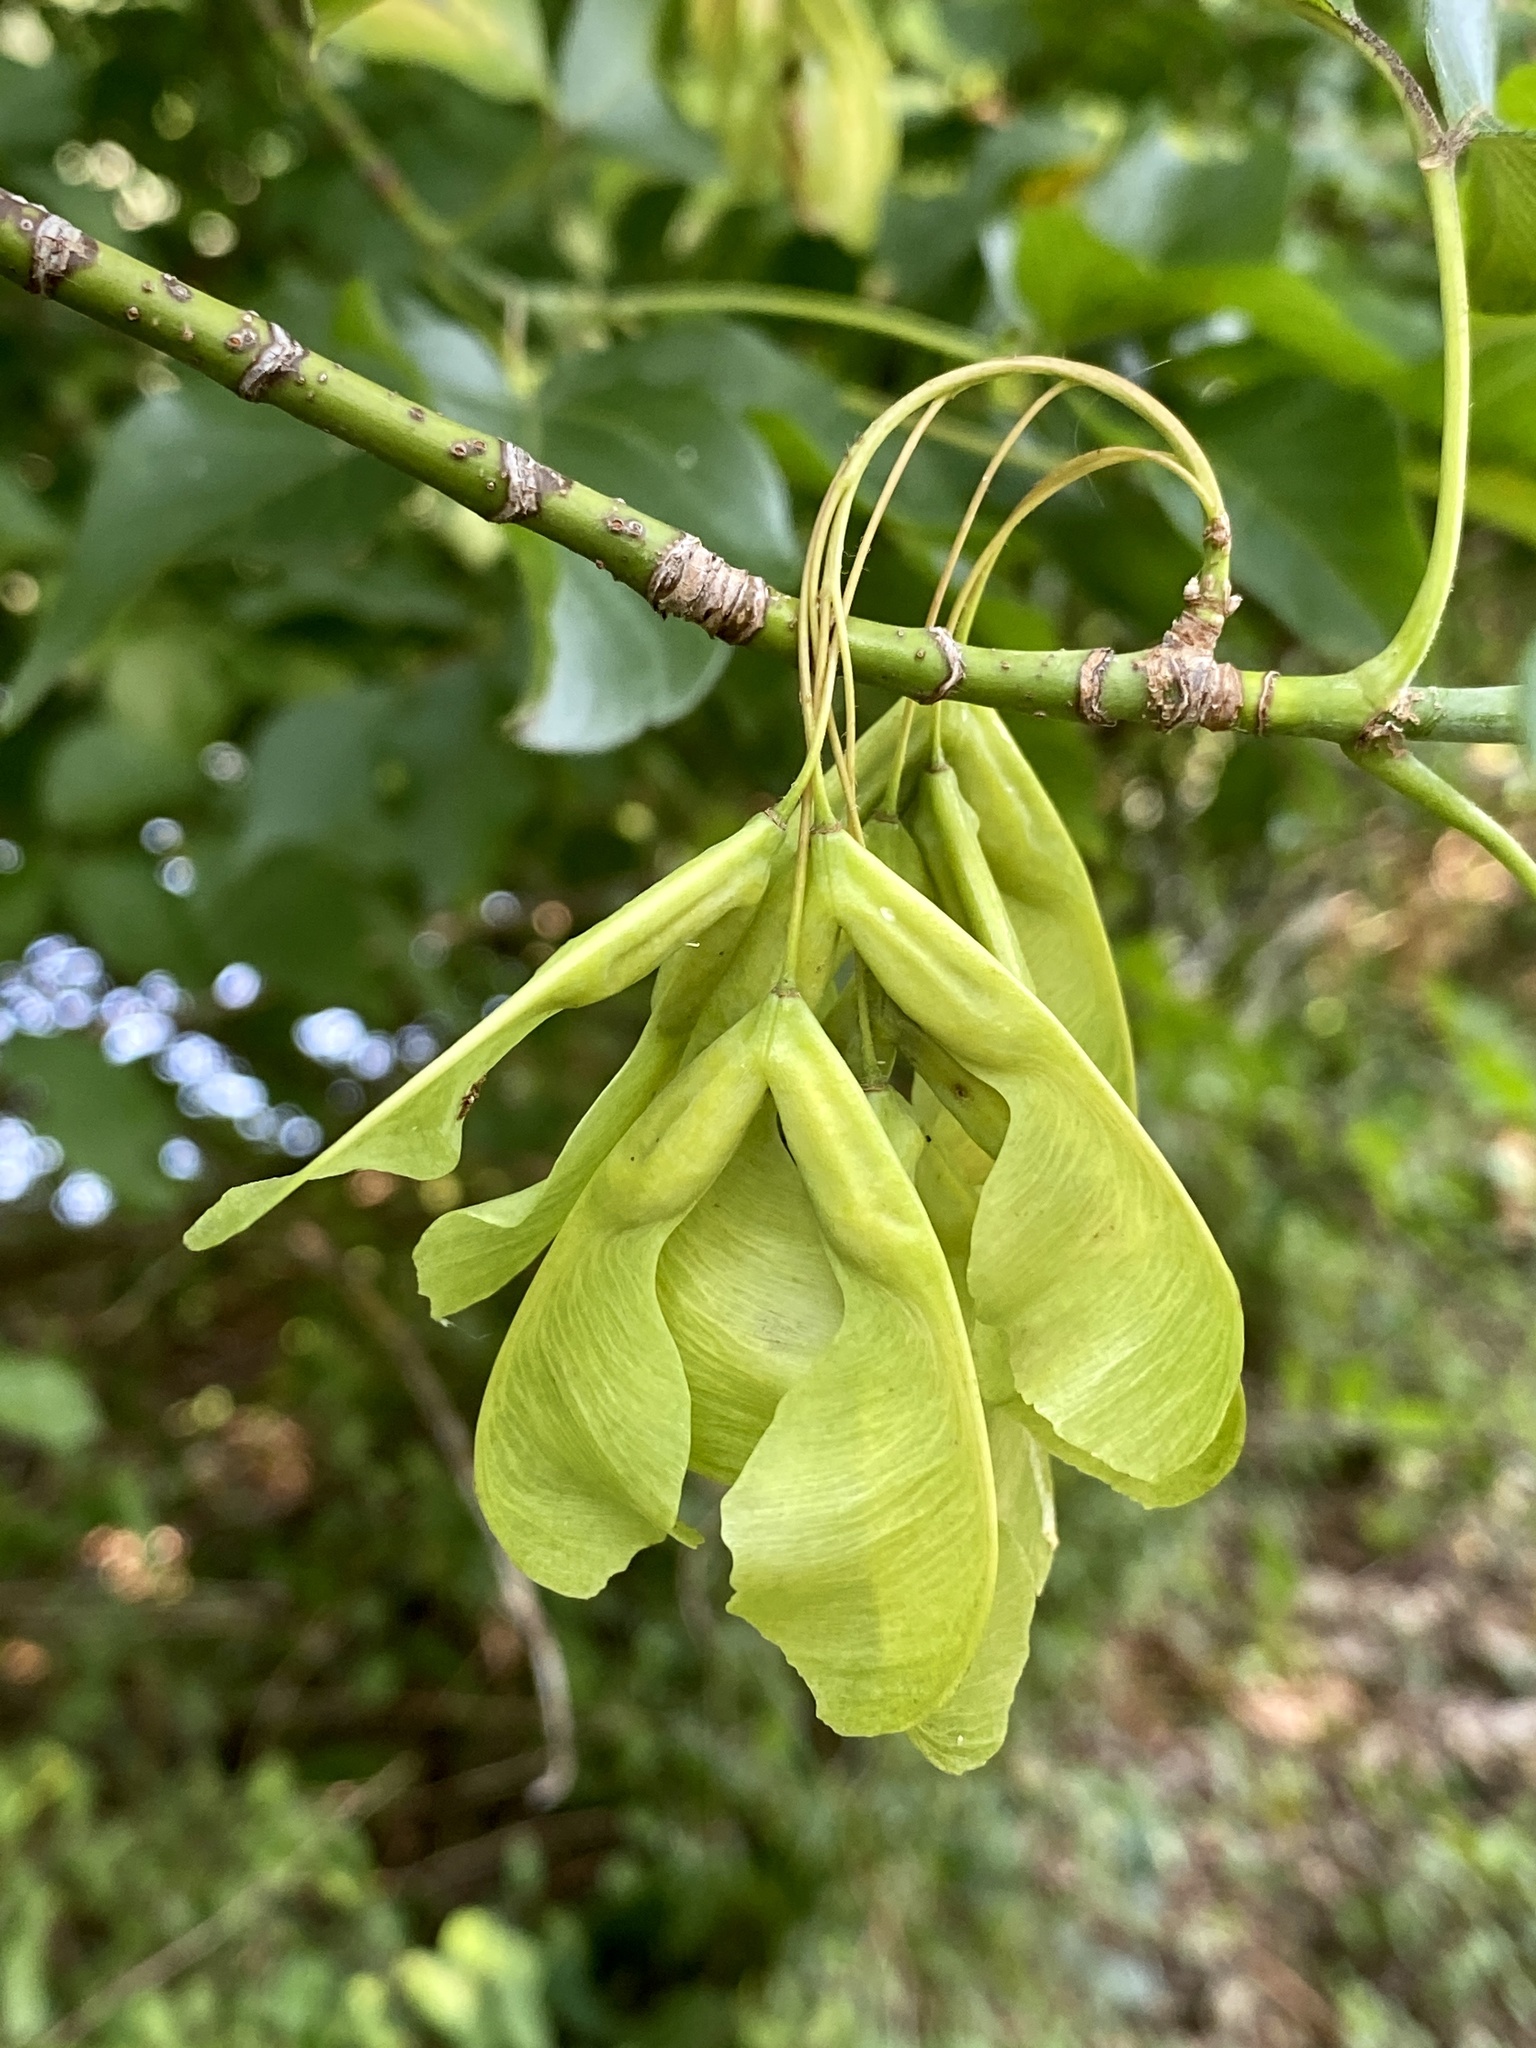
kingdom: Plantae
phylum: Tracheophyta
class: Magnoliopsida
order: Sapindales
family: Sapindaceae
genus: Acer
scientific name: Acer negundo
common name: Ashleaf maple
